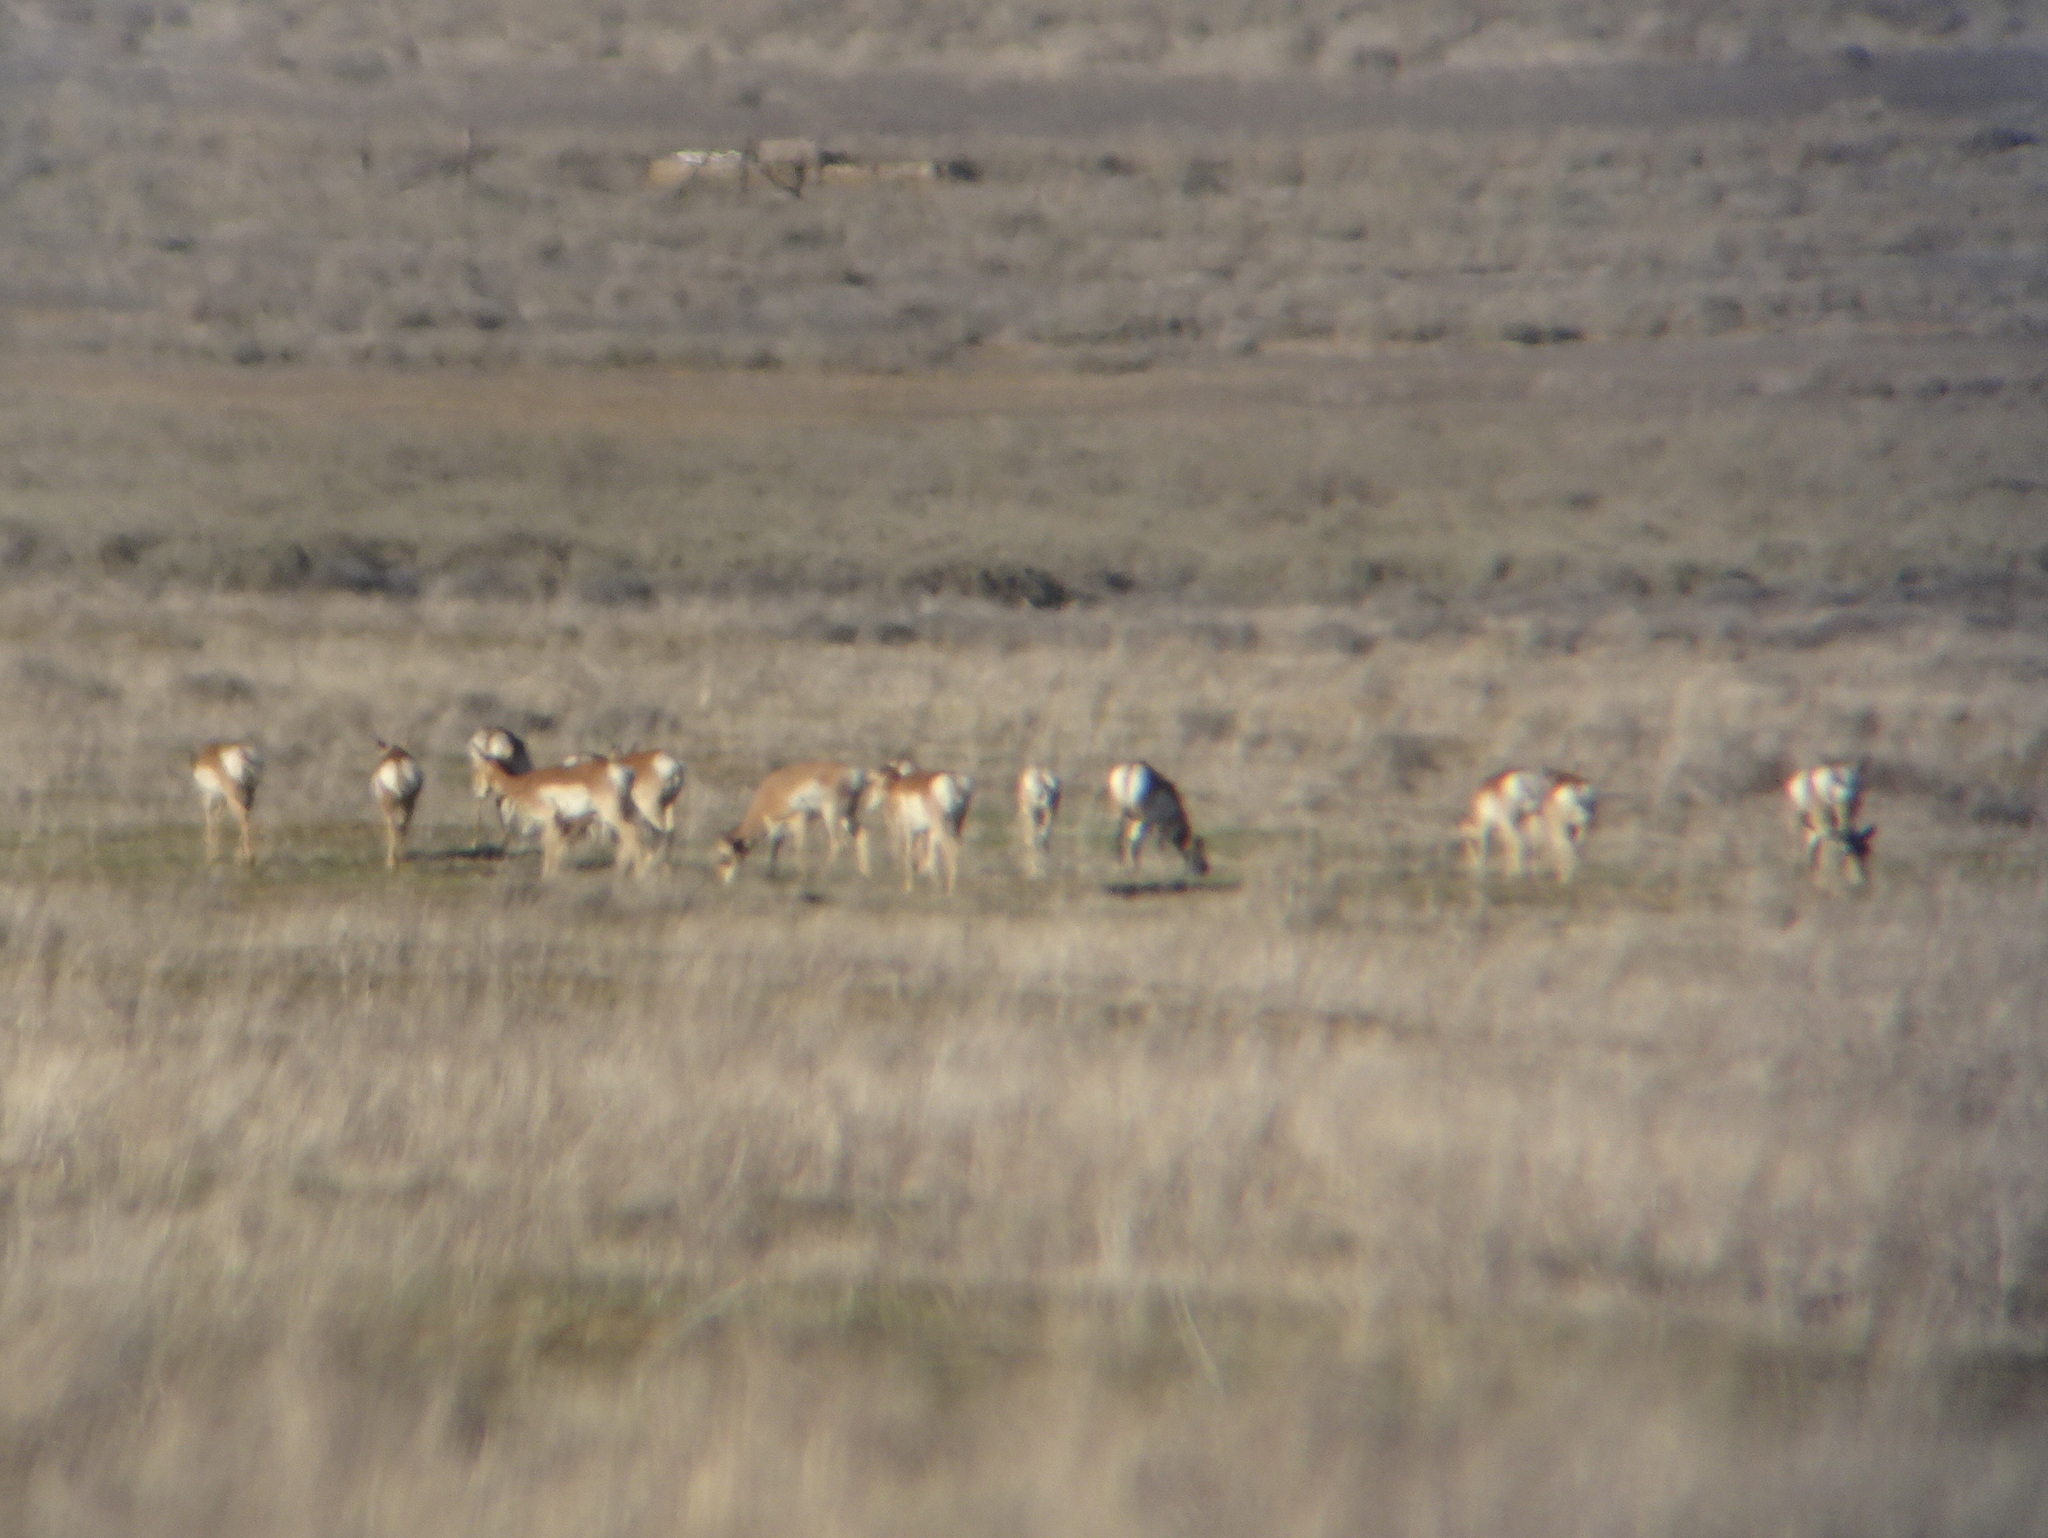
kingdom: Animalia
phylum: Chordata
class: Mammalia
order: Artiodactyla
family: Antilocapridae
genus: Antilocapra
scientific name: Antilocapra americana
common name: Pronghorn
